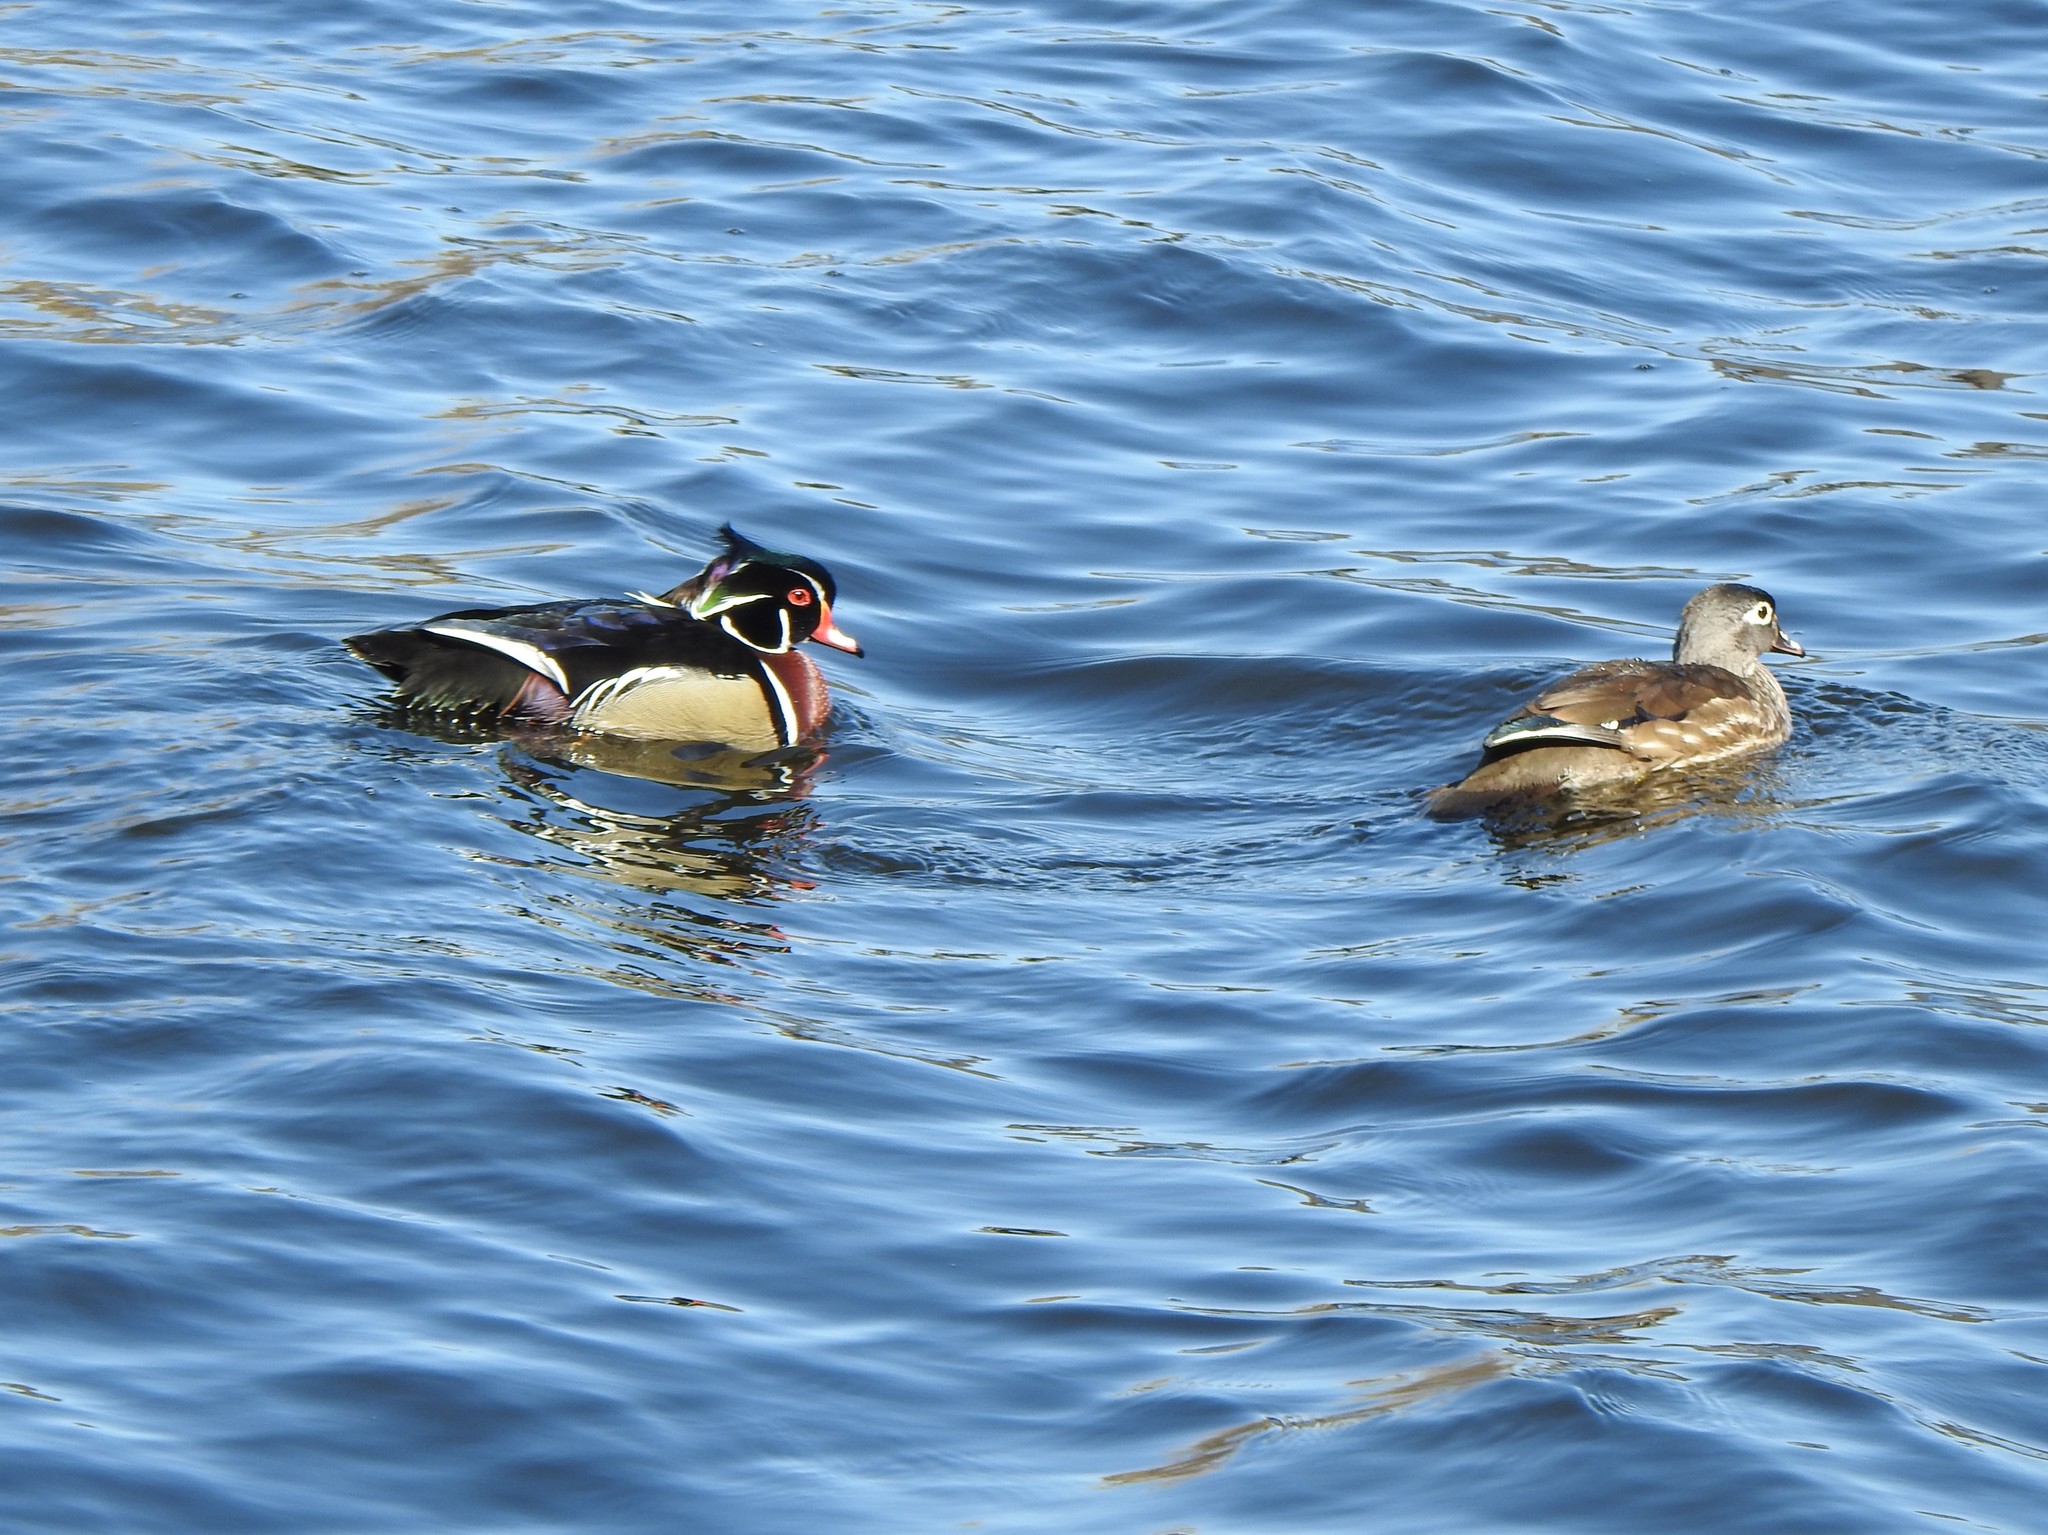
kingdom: Animalia
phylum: Chordata
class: Aves
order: Anseriformes
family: Anatidae
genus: Aix
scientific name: Aix sponsa
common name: Wood duck
